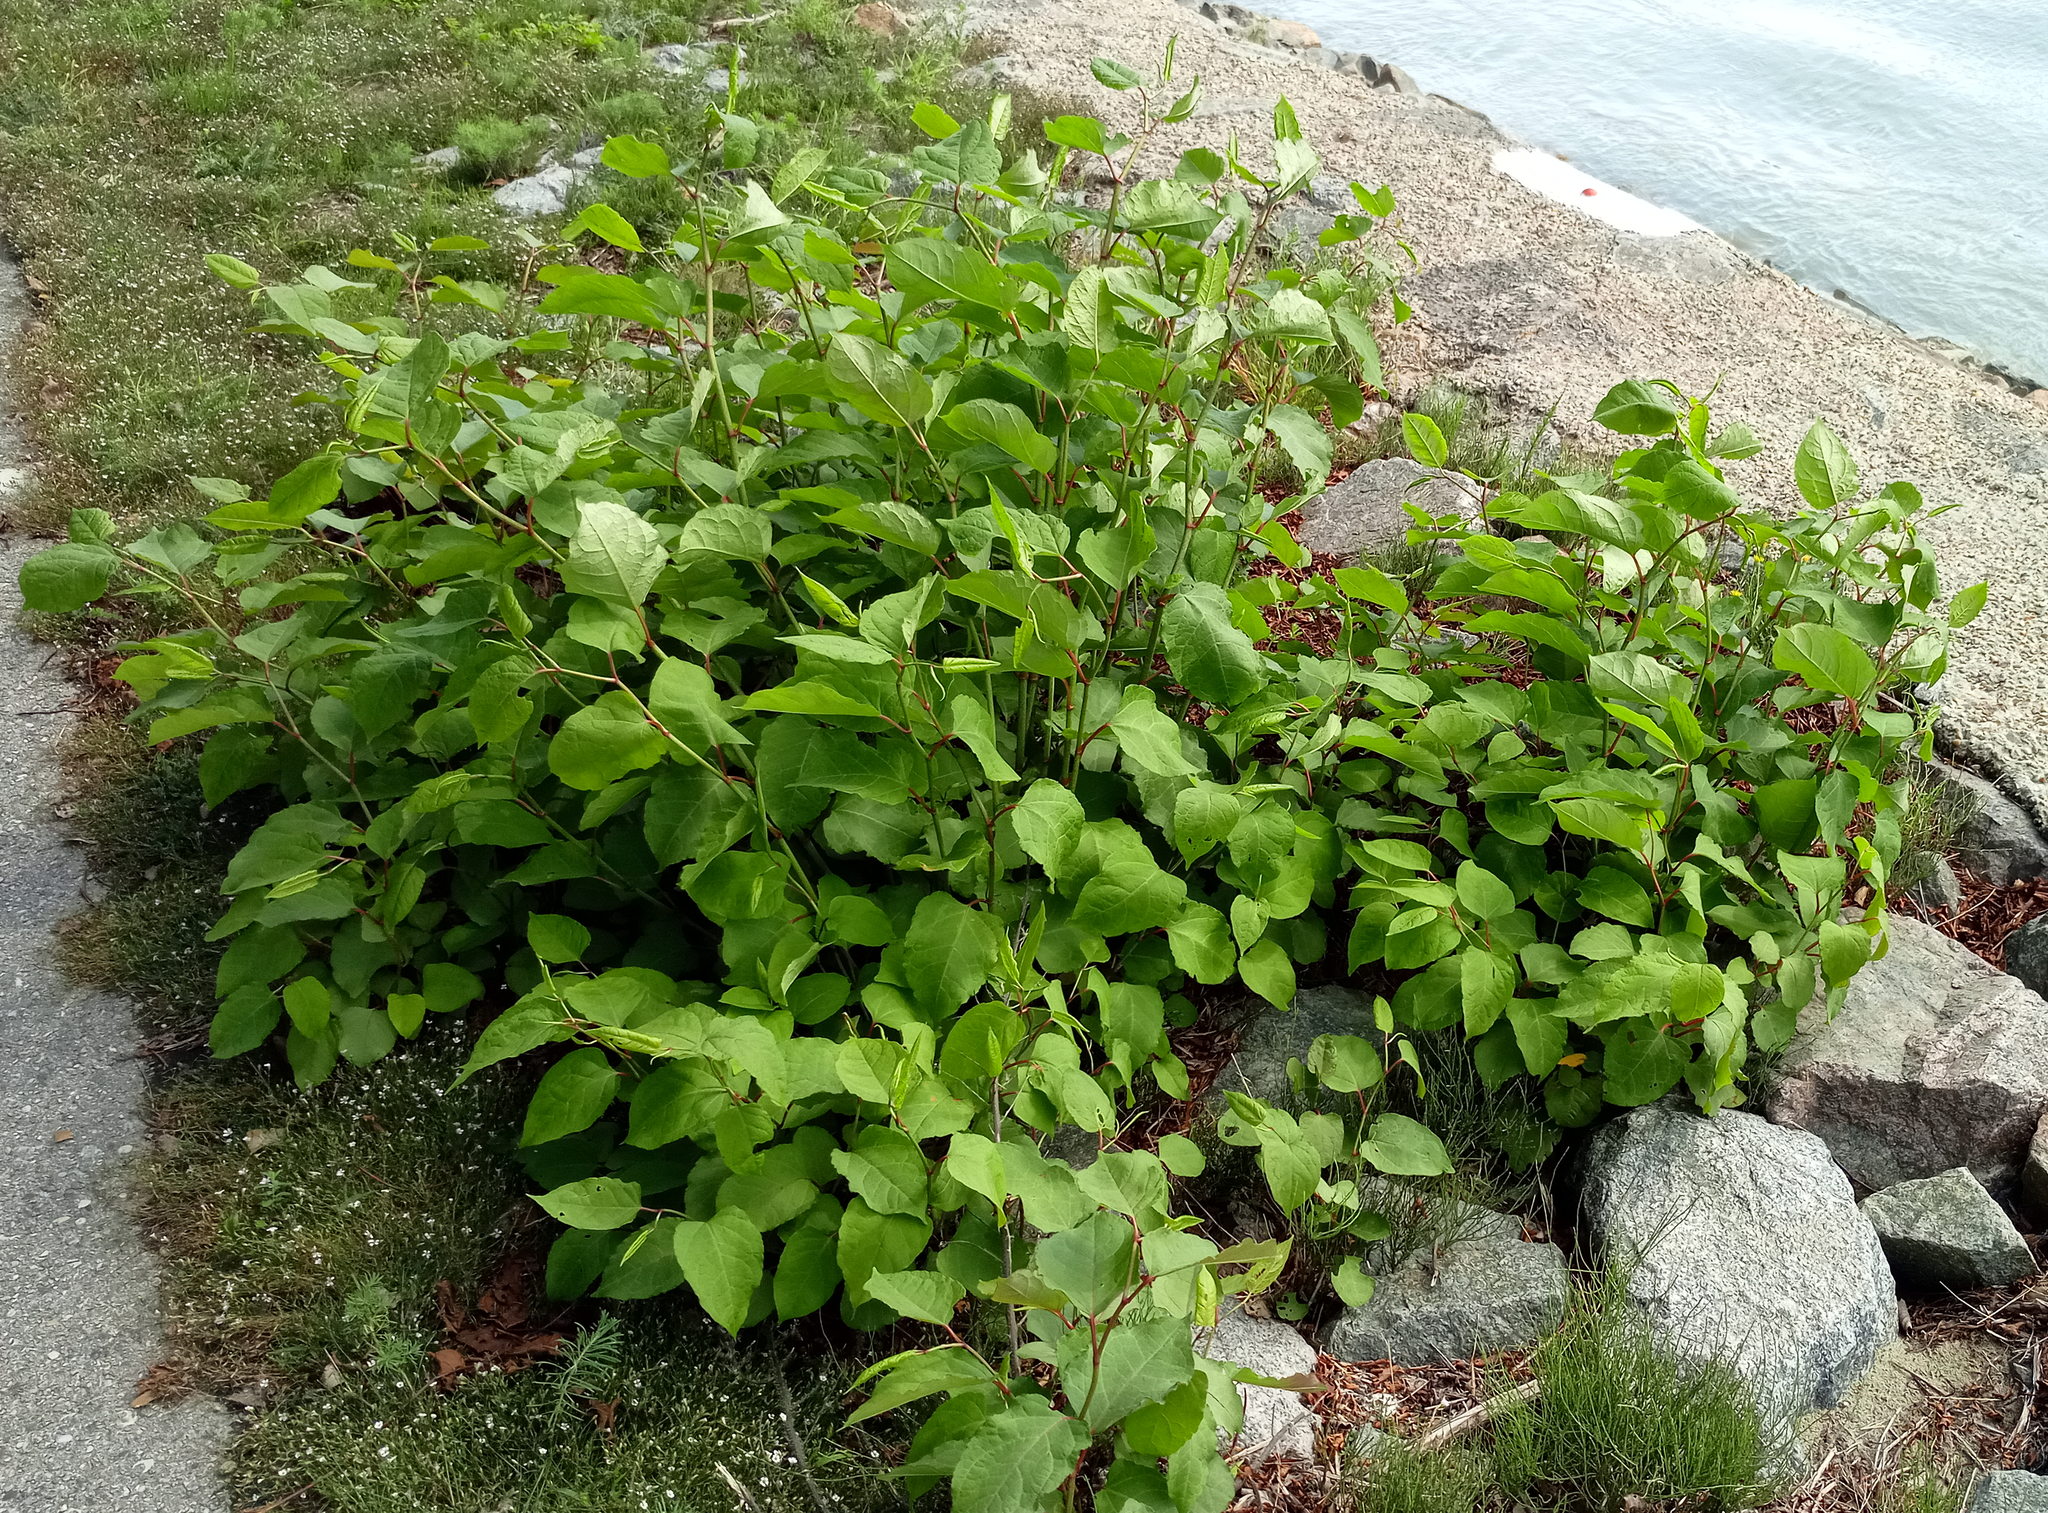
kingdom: Plantae
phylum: Tracheophyta
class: Magnoliopsida
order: Caryophyllales
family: Polygonaceae
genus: Reynoutria
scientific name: Reynoutria bohemica
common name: Bohemian knotweed
